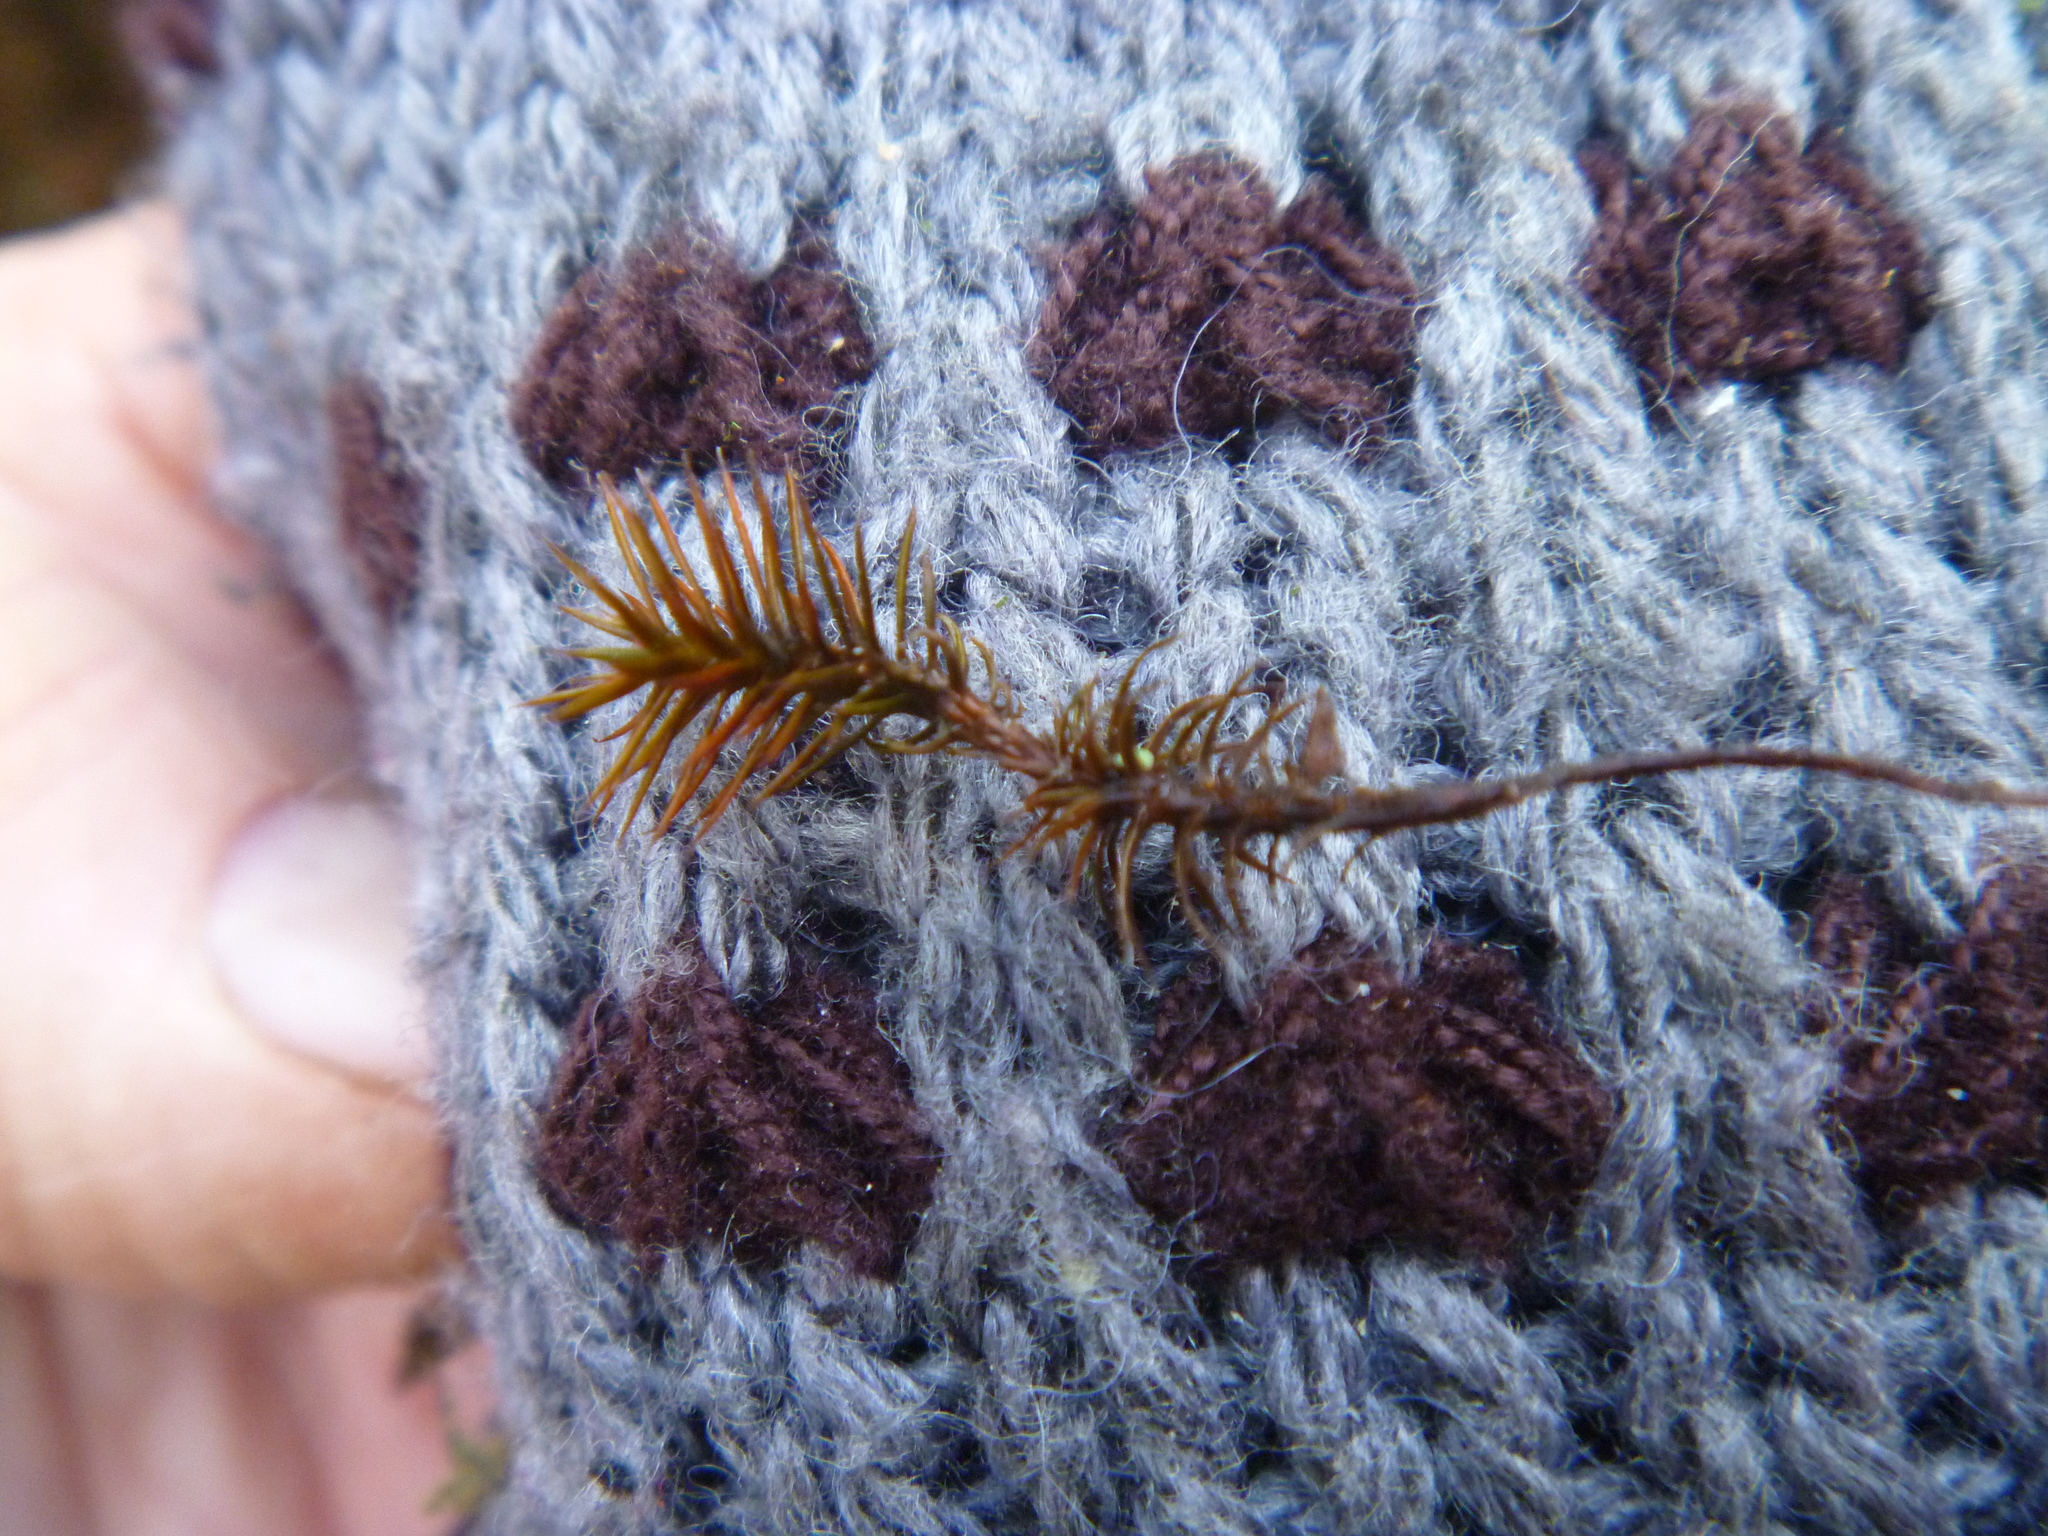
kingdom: Plantae
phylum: Bryophyta
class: Polytrichopsida
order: Polytrichales
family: Polytrichaceae
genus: Polytrichum
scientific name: Polytrichum juniperinum
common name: Juniper haircap moss
